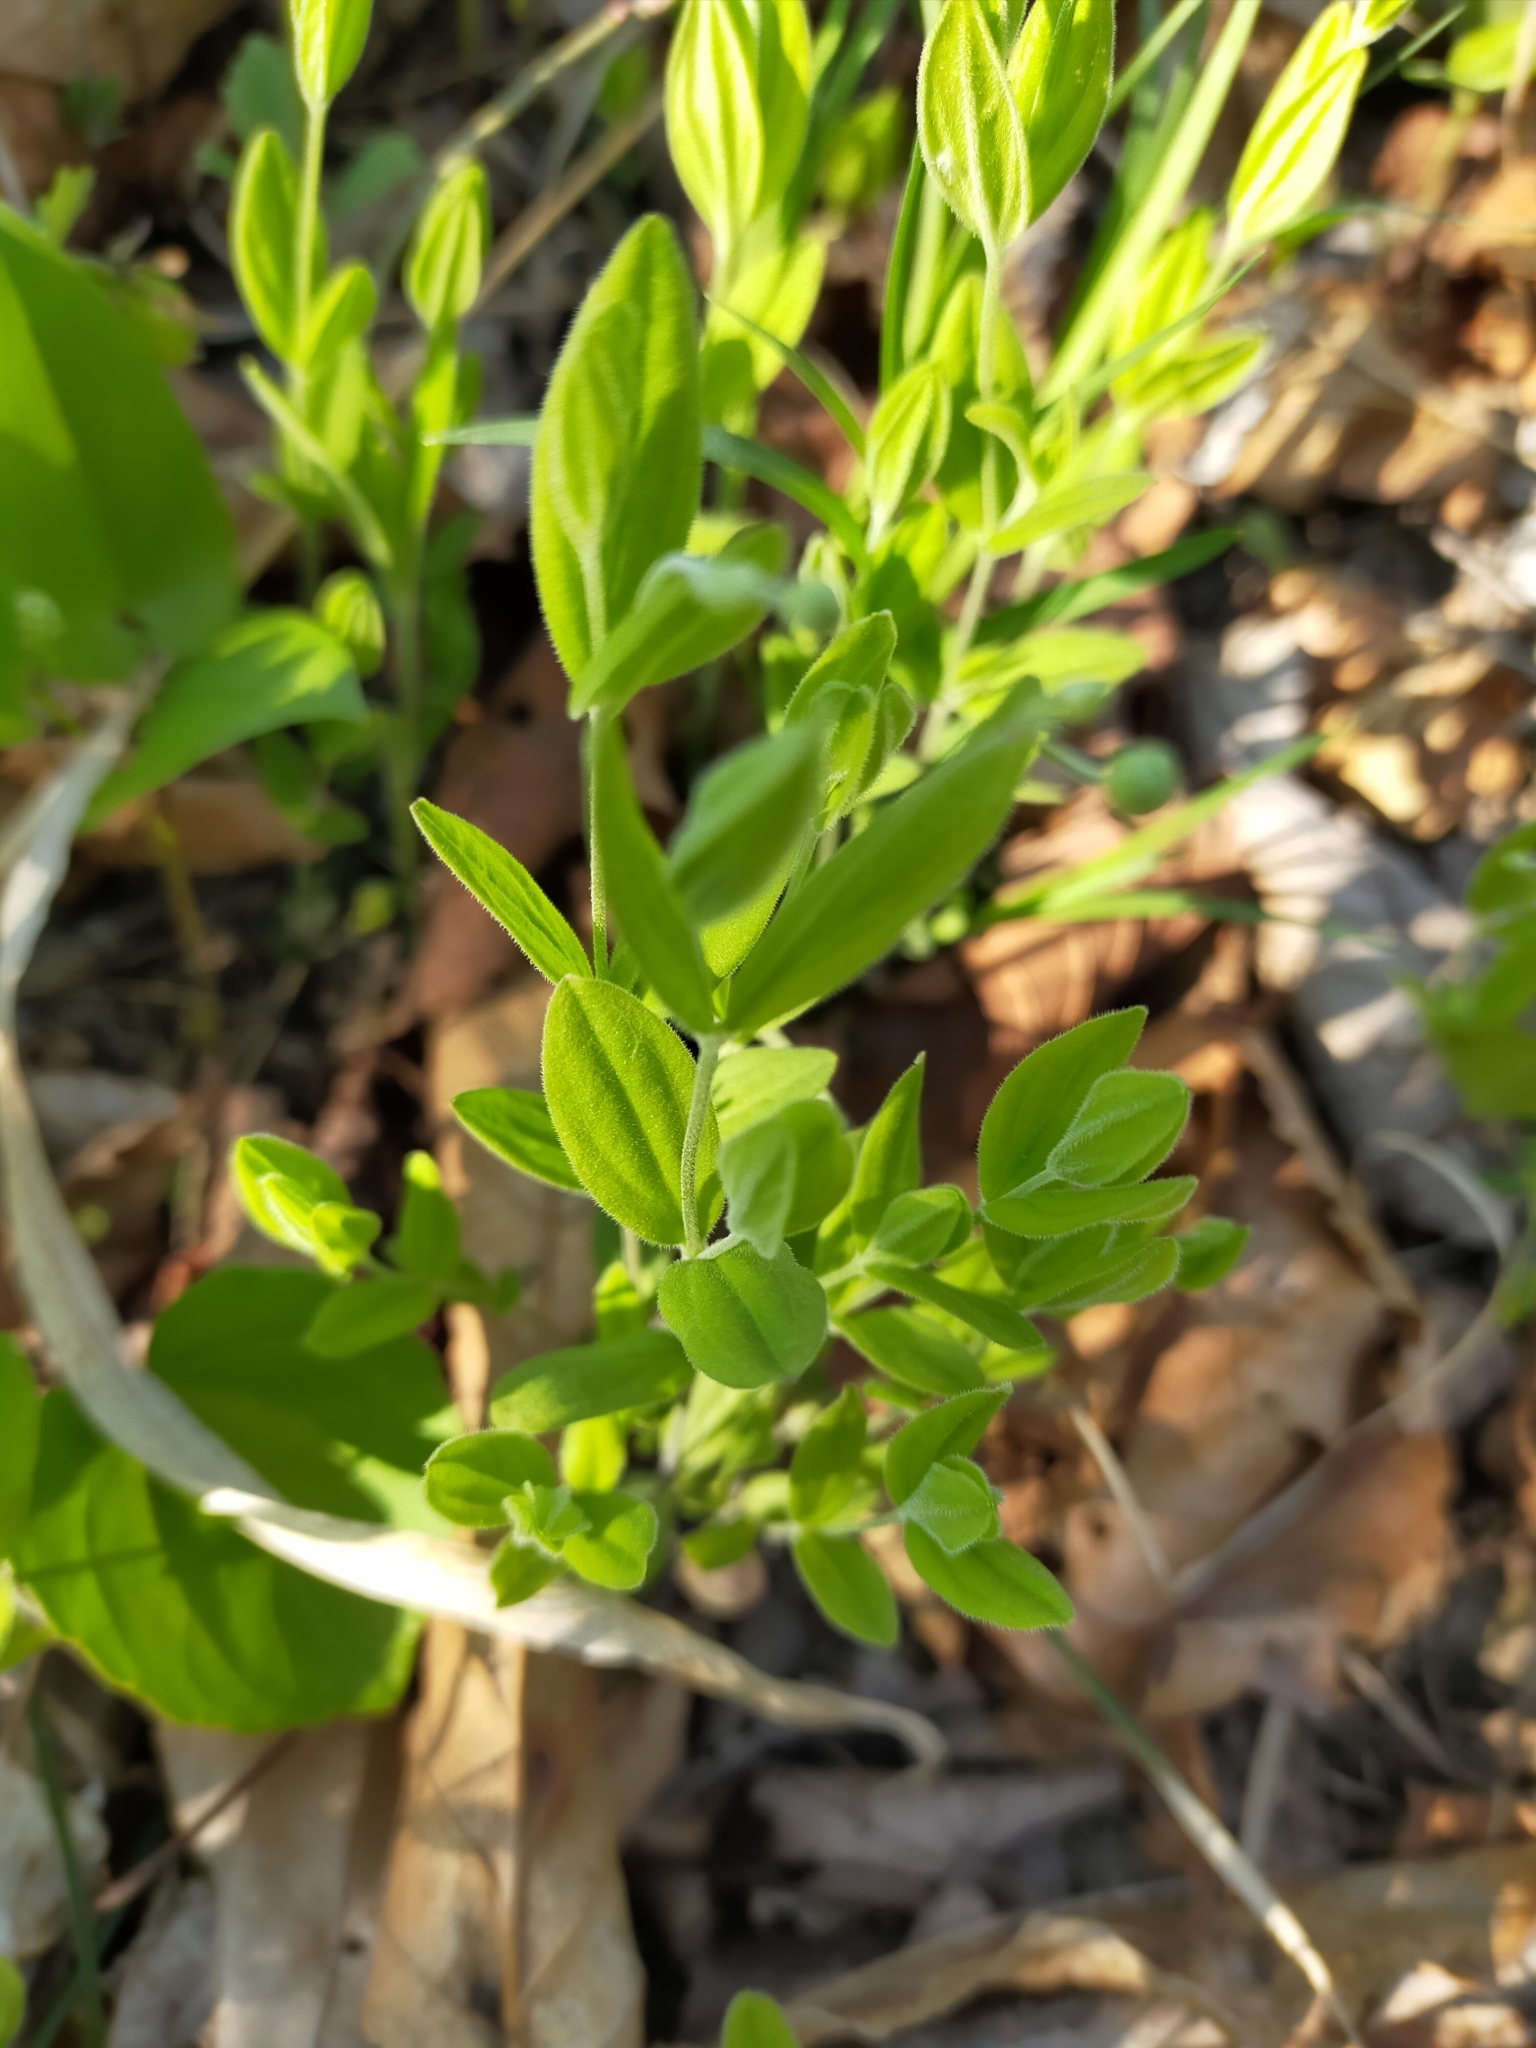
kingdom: Plantae
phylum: Tracheophyta
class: Magnoliopsida
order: Caryophyllales
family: Caryophyllaceae
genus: Moehringia
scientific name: Moehringia lateriflora
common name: Blunt-leaved sandwort
